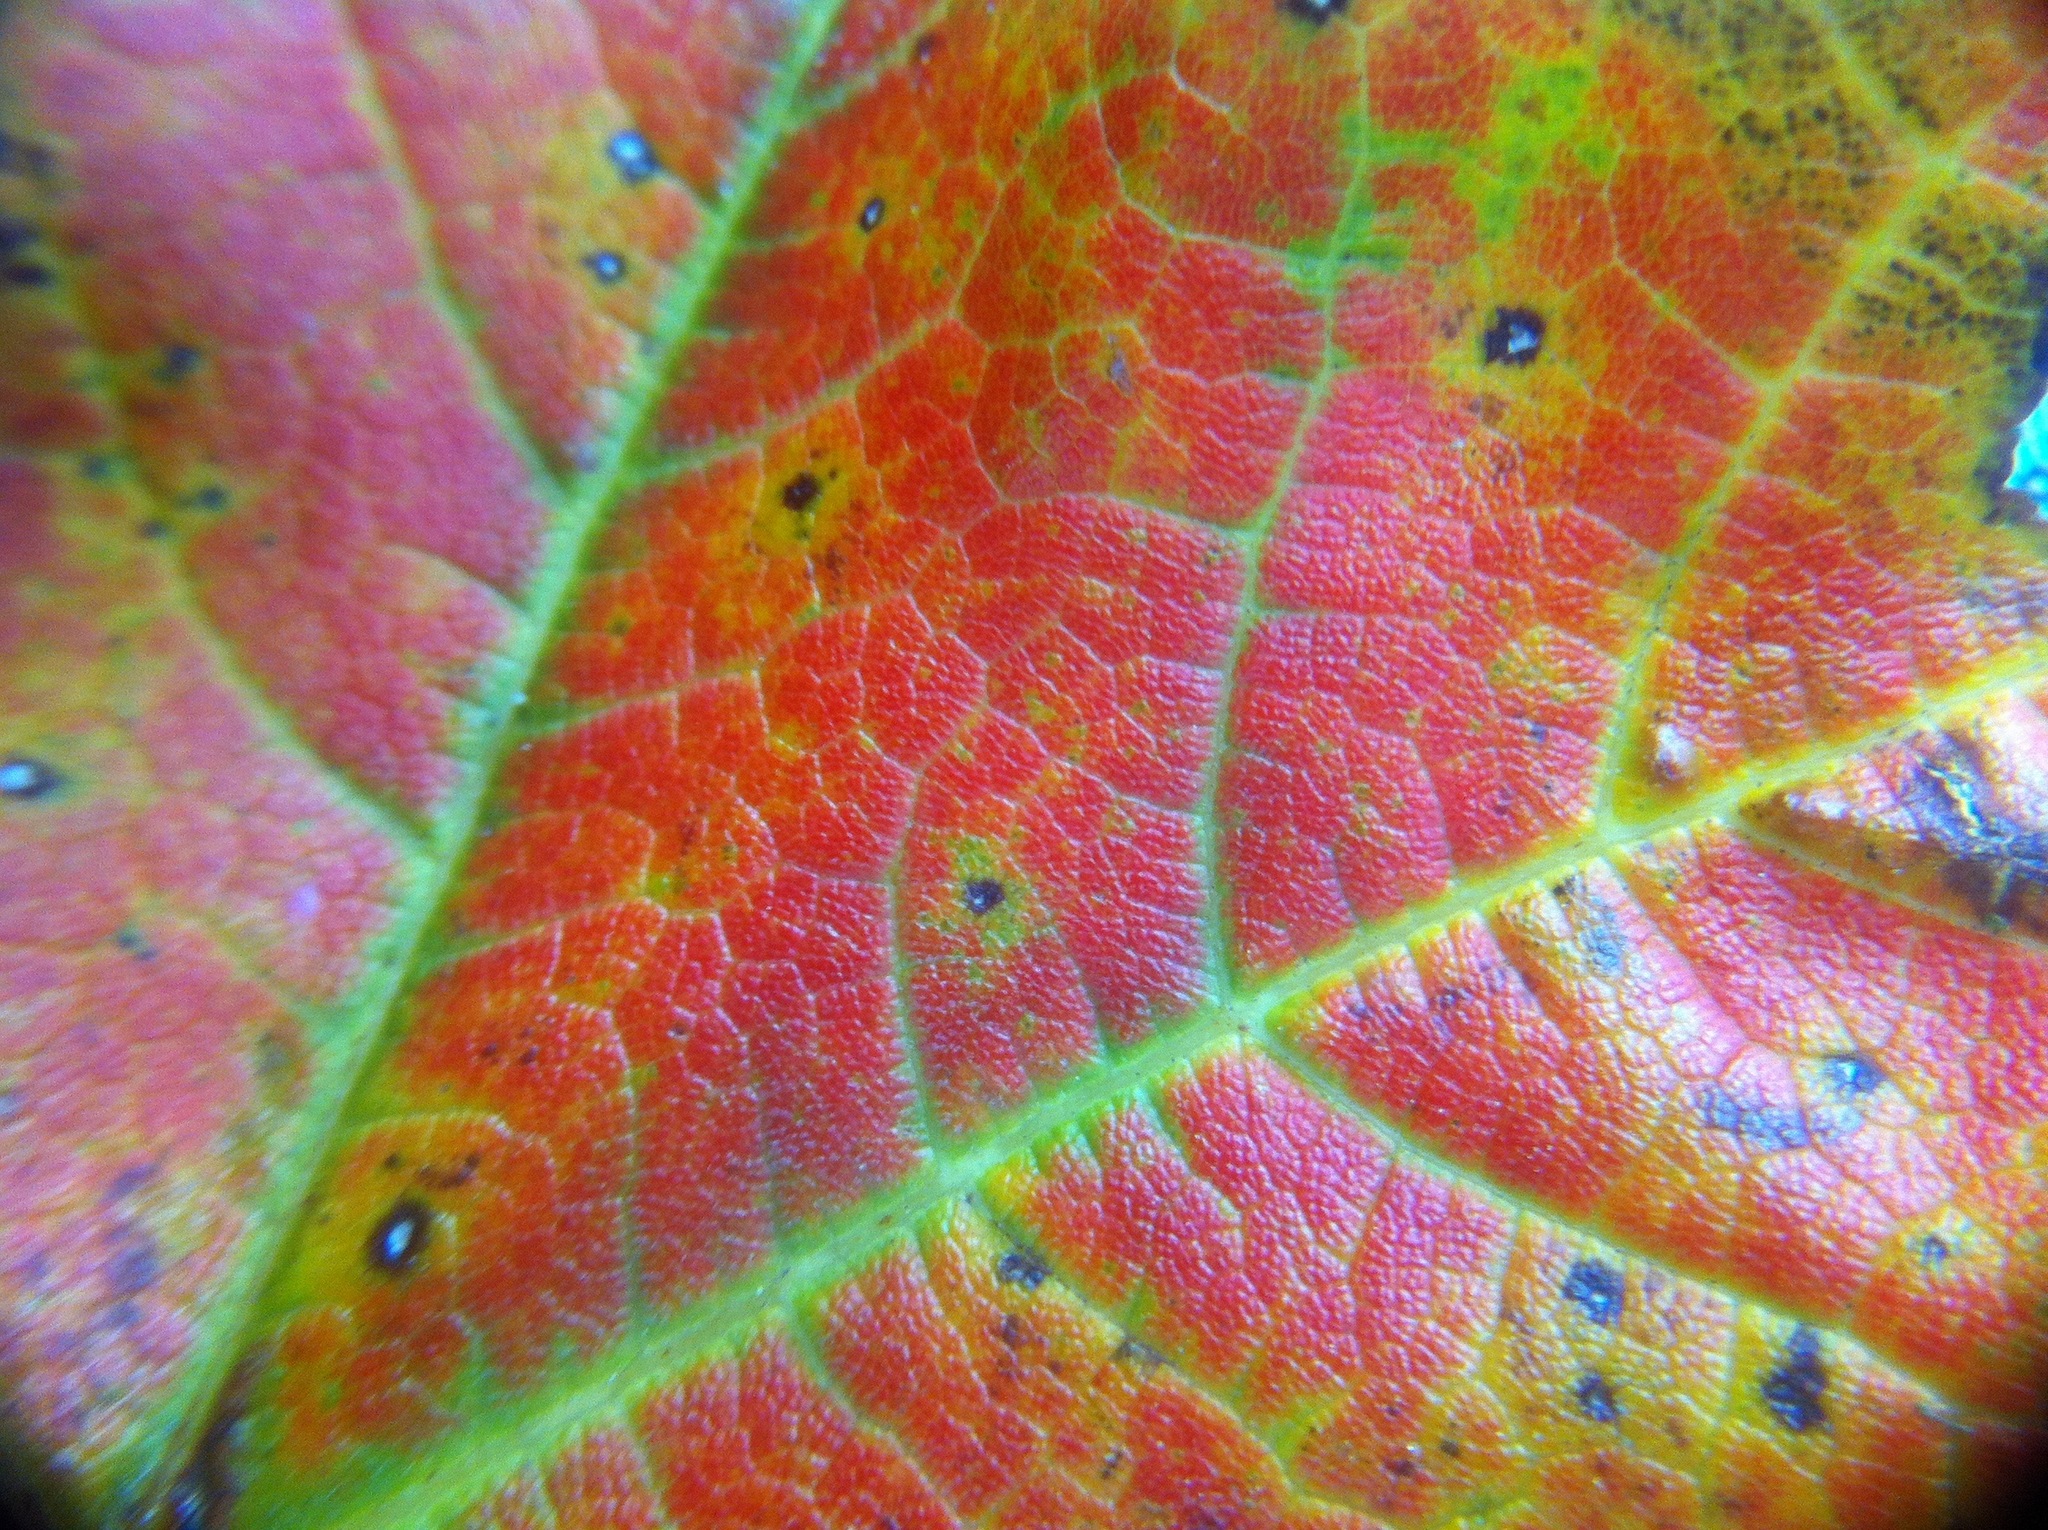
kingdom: Plantae
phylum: Tracheophyta
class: Magnoliopsida
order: Sapindales
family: Sapindaceae
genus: Acer
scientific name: Acer saccharum
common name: Sugar maple
